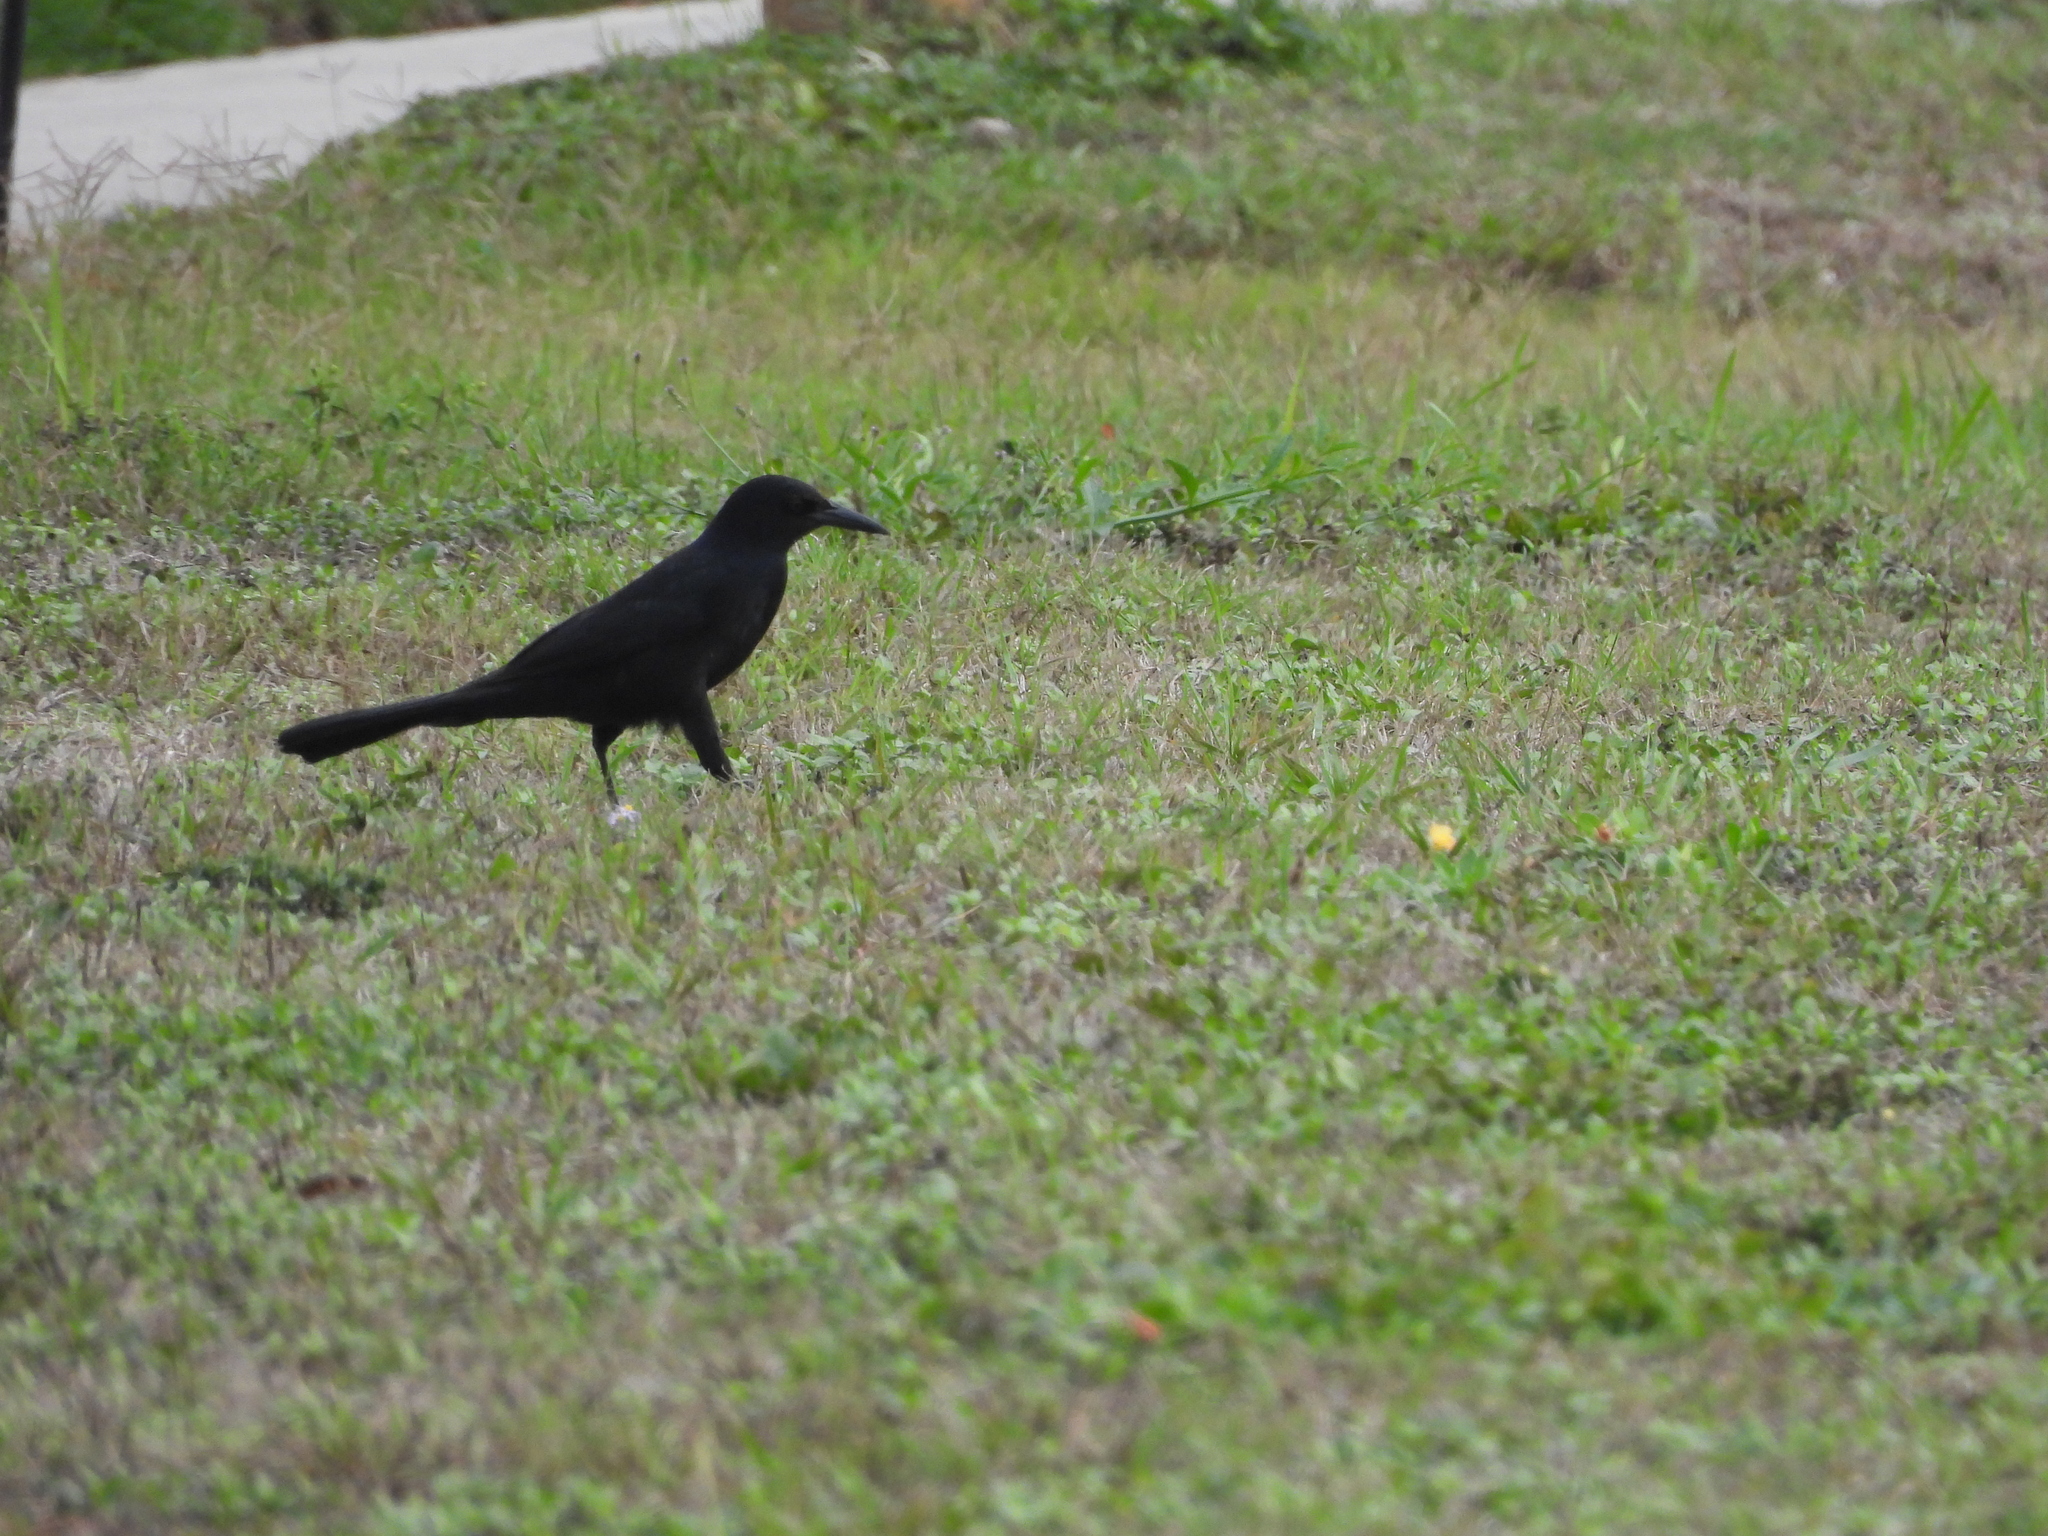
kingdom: Animalia
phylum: Chordata
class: Aves
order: Passeriformes
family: Icteridae
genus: Quiscalus
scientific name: Quiscalus major
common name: Boat-tailed grackle
